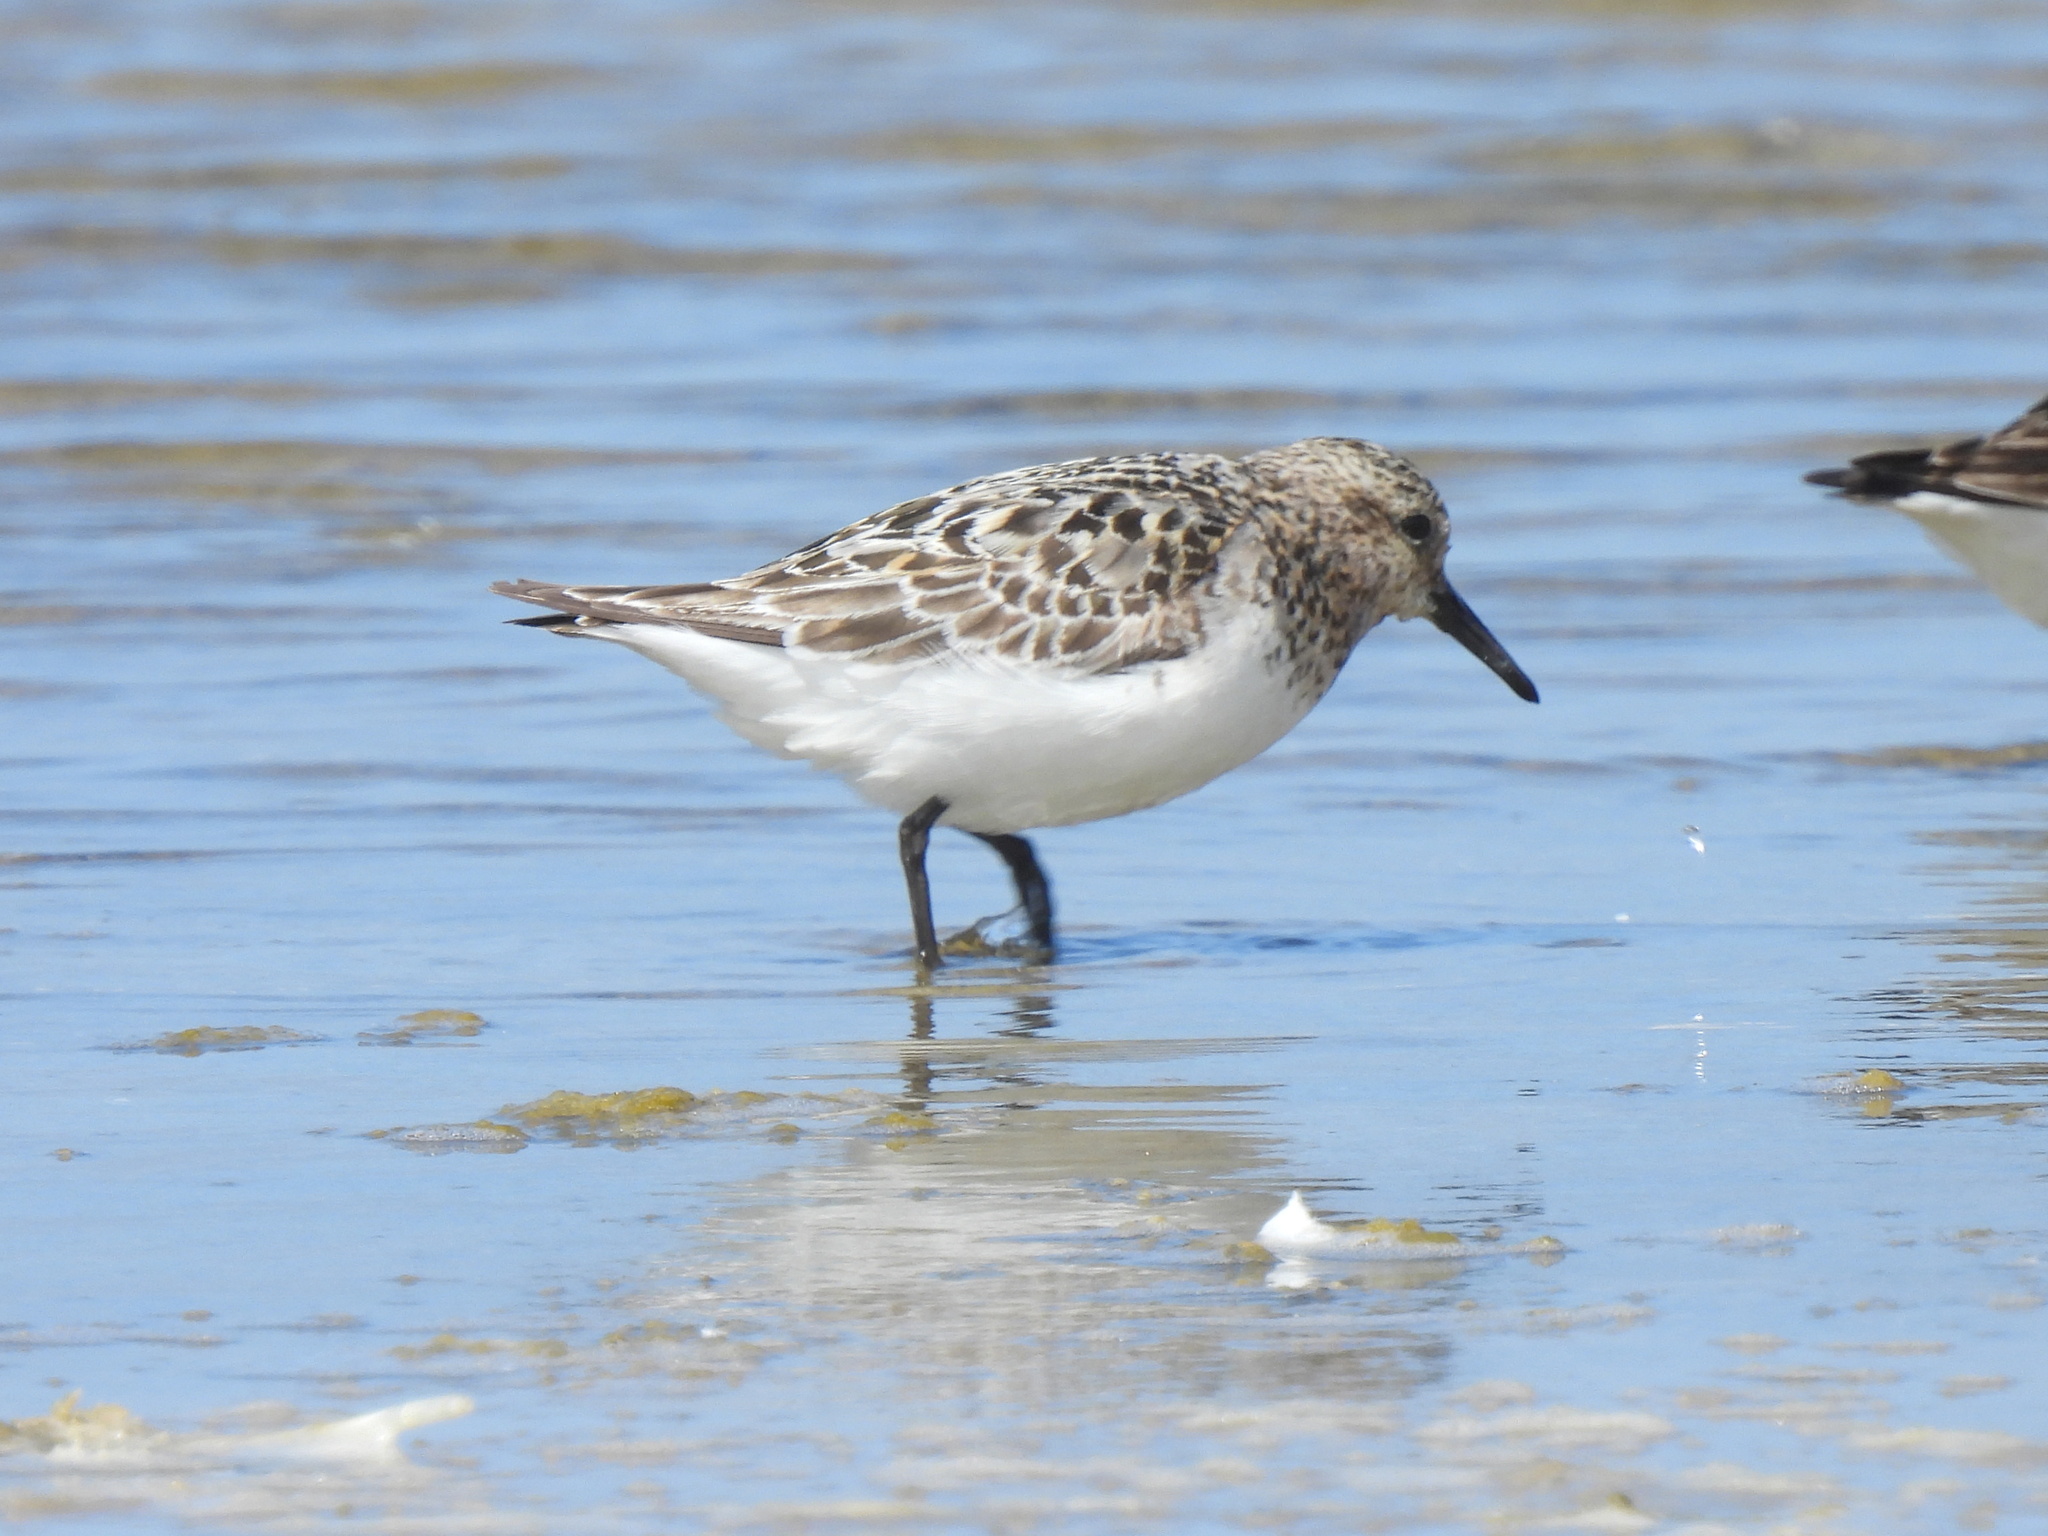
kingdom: Animalia
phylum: Chordata
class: Aves
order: Charadriiformes
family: Scolopacidae
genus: Calidris
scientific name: Calidris alba
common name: Sanderling
